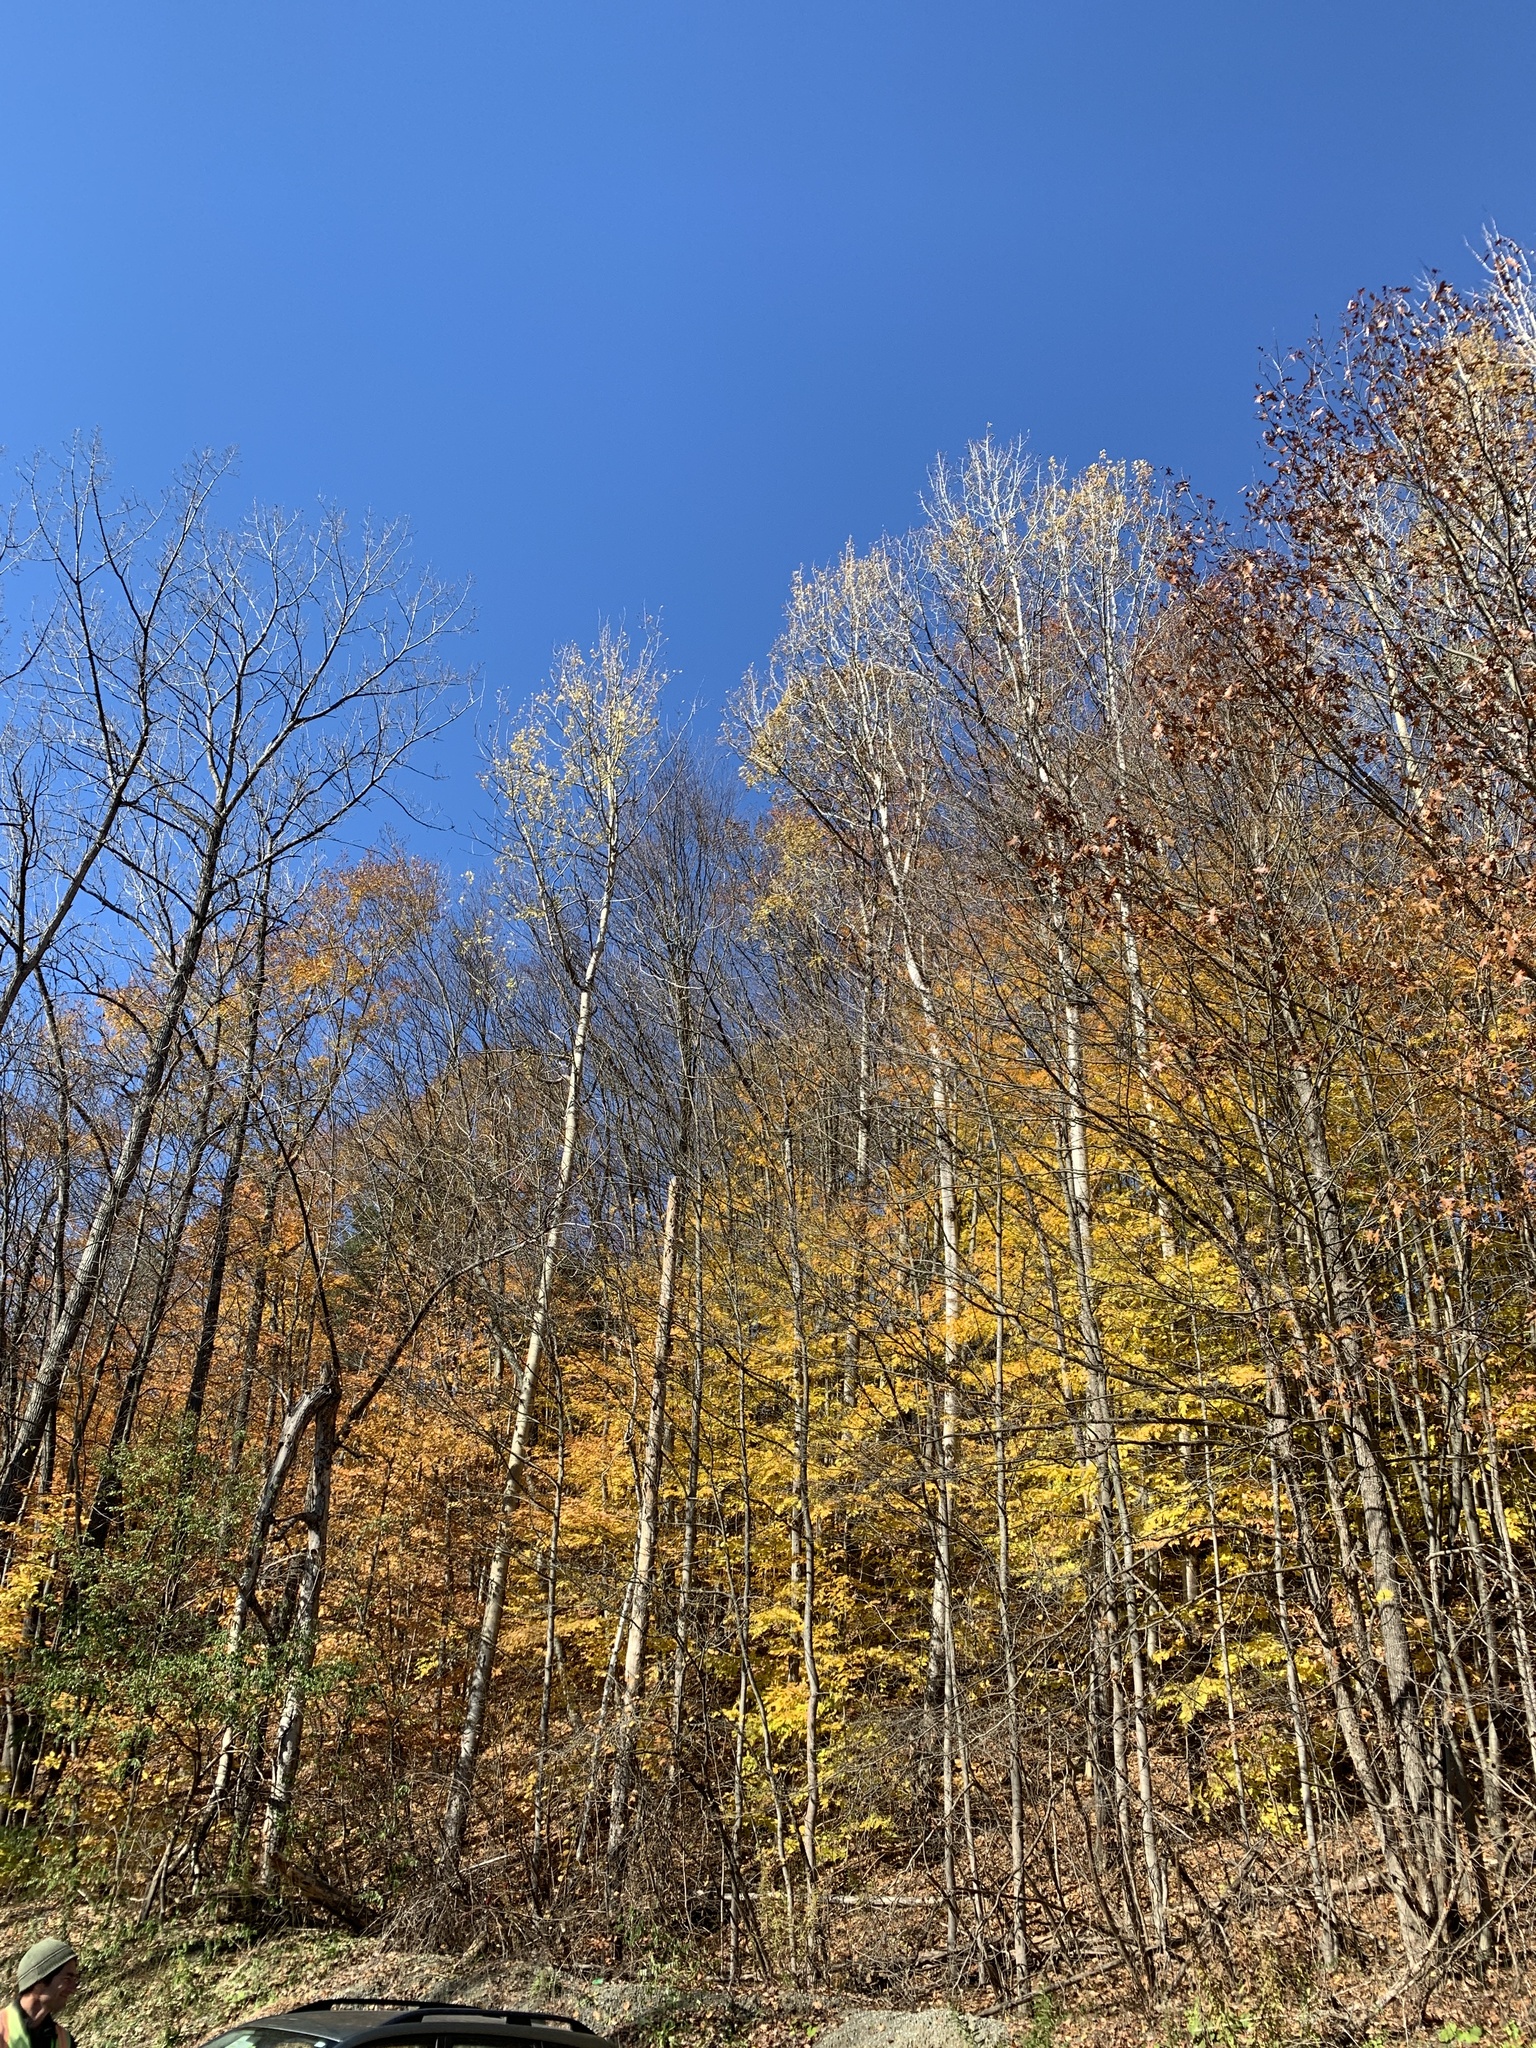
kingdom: Plantae
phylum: Tracheophyta
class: Magnoliopsida
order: Malpighiales
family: Salicaceae
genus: Populus
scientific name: Populus tremuloides
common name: Quaking aspen
